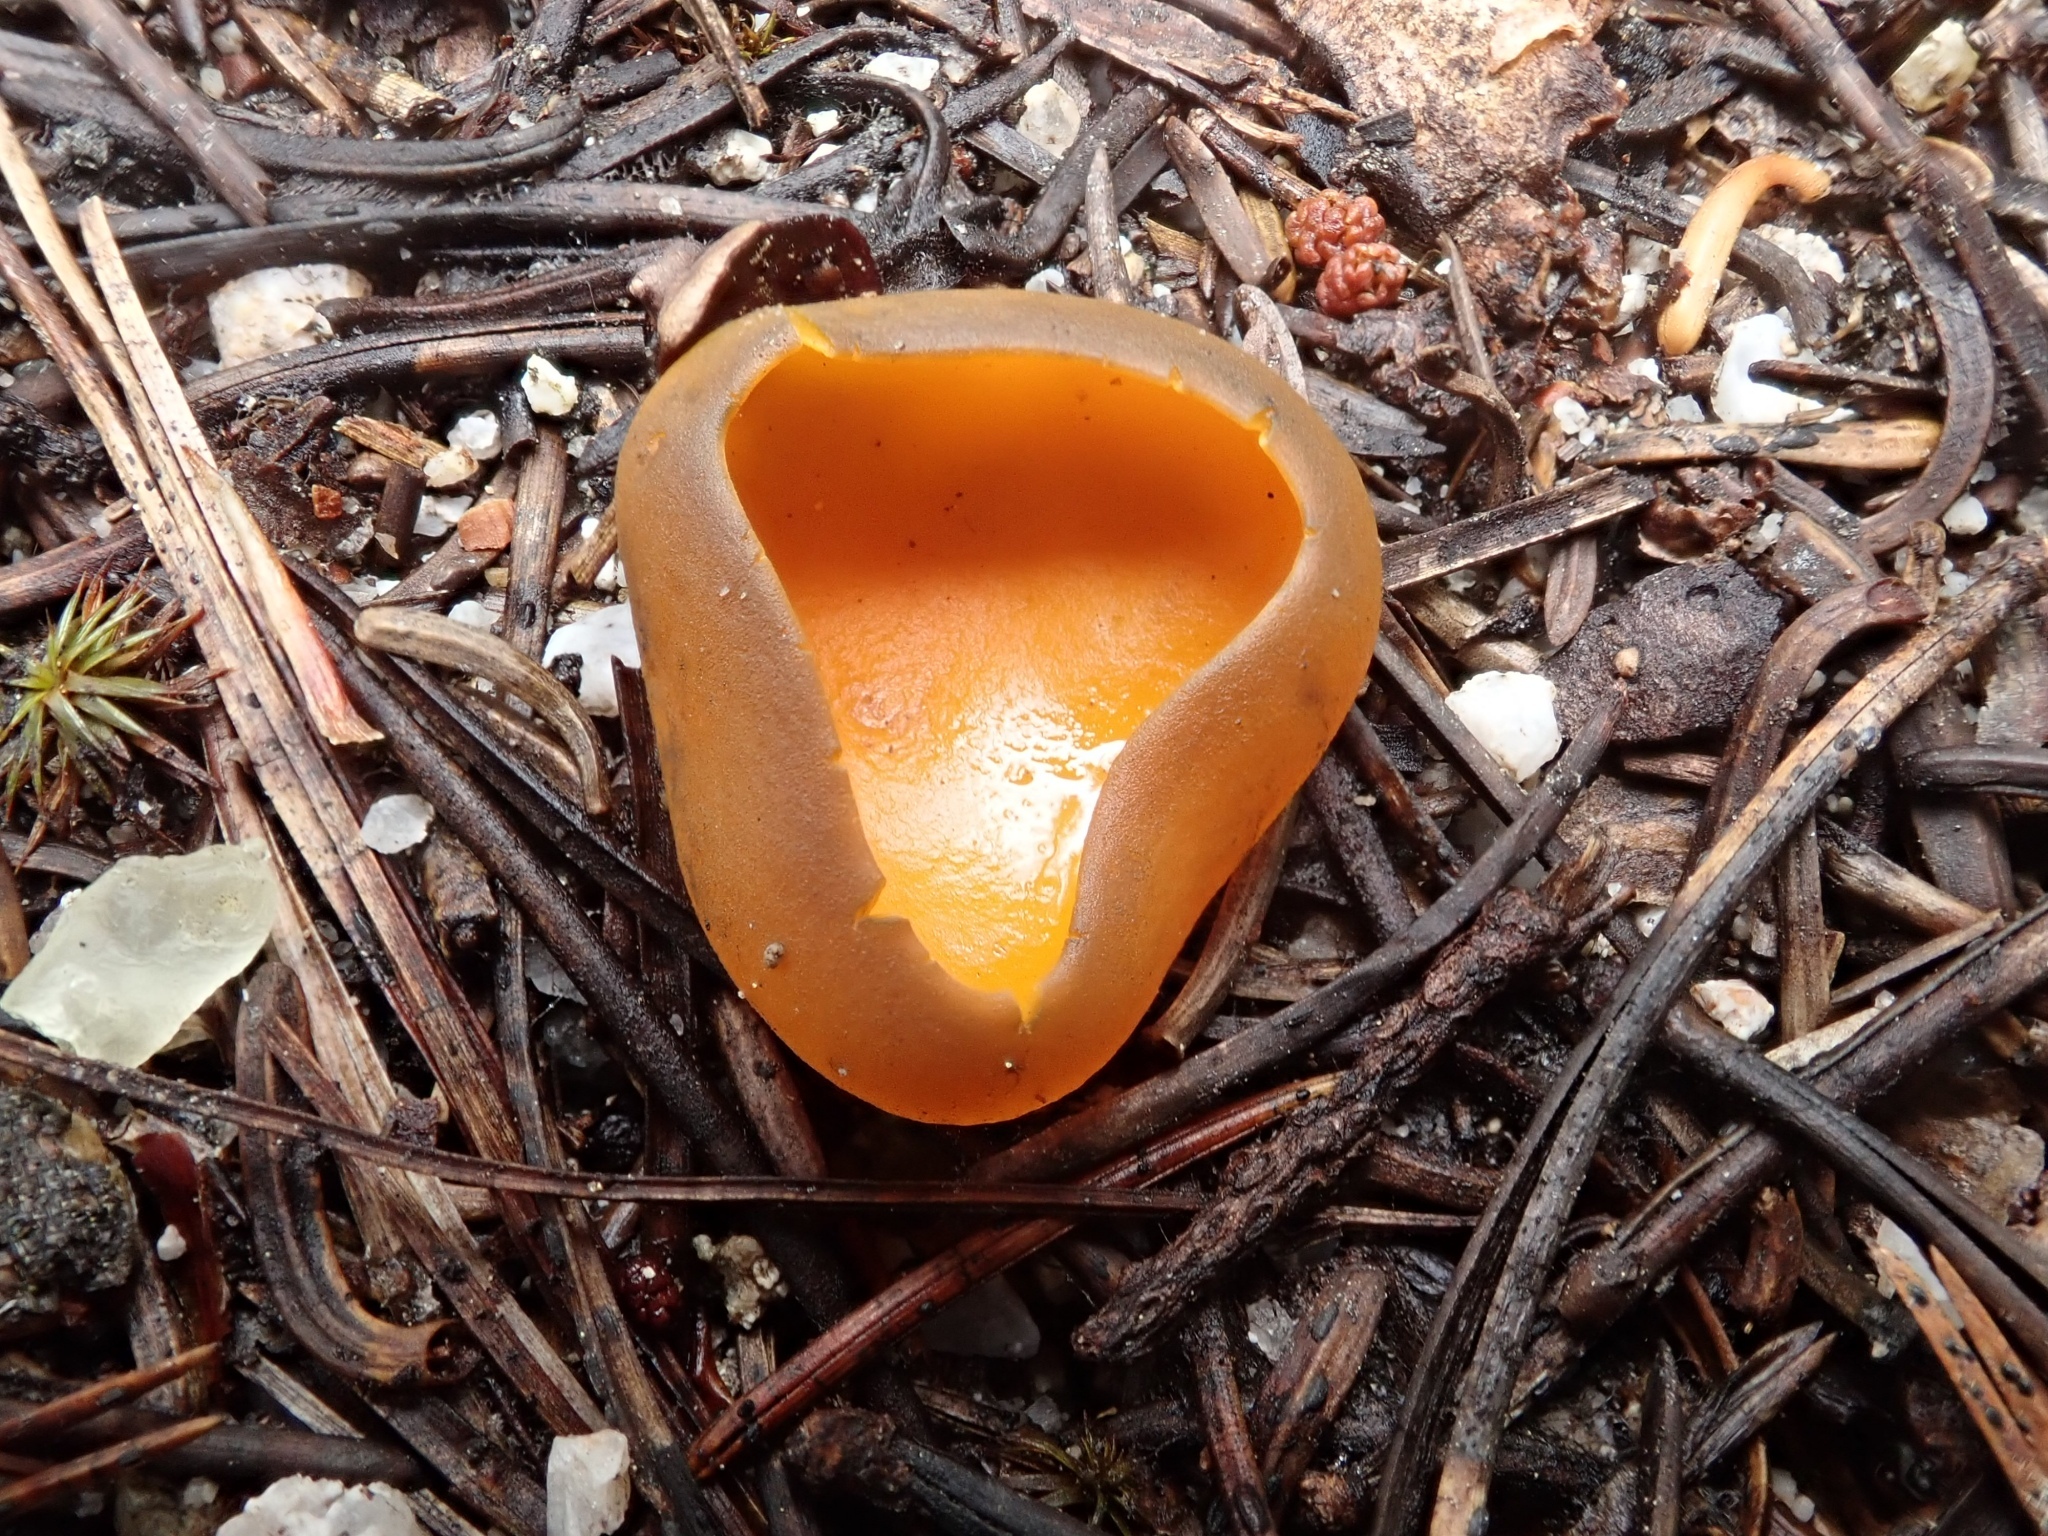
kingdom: Fungi
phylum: Ascomycota
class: Pezizomycetes
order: Pezizales
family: Caloscyphaceae
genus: Caloscypha
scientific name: Caloscypha fulgens
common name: Golden cup
